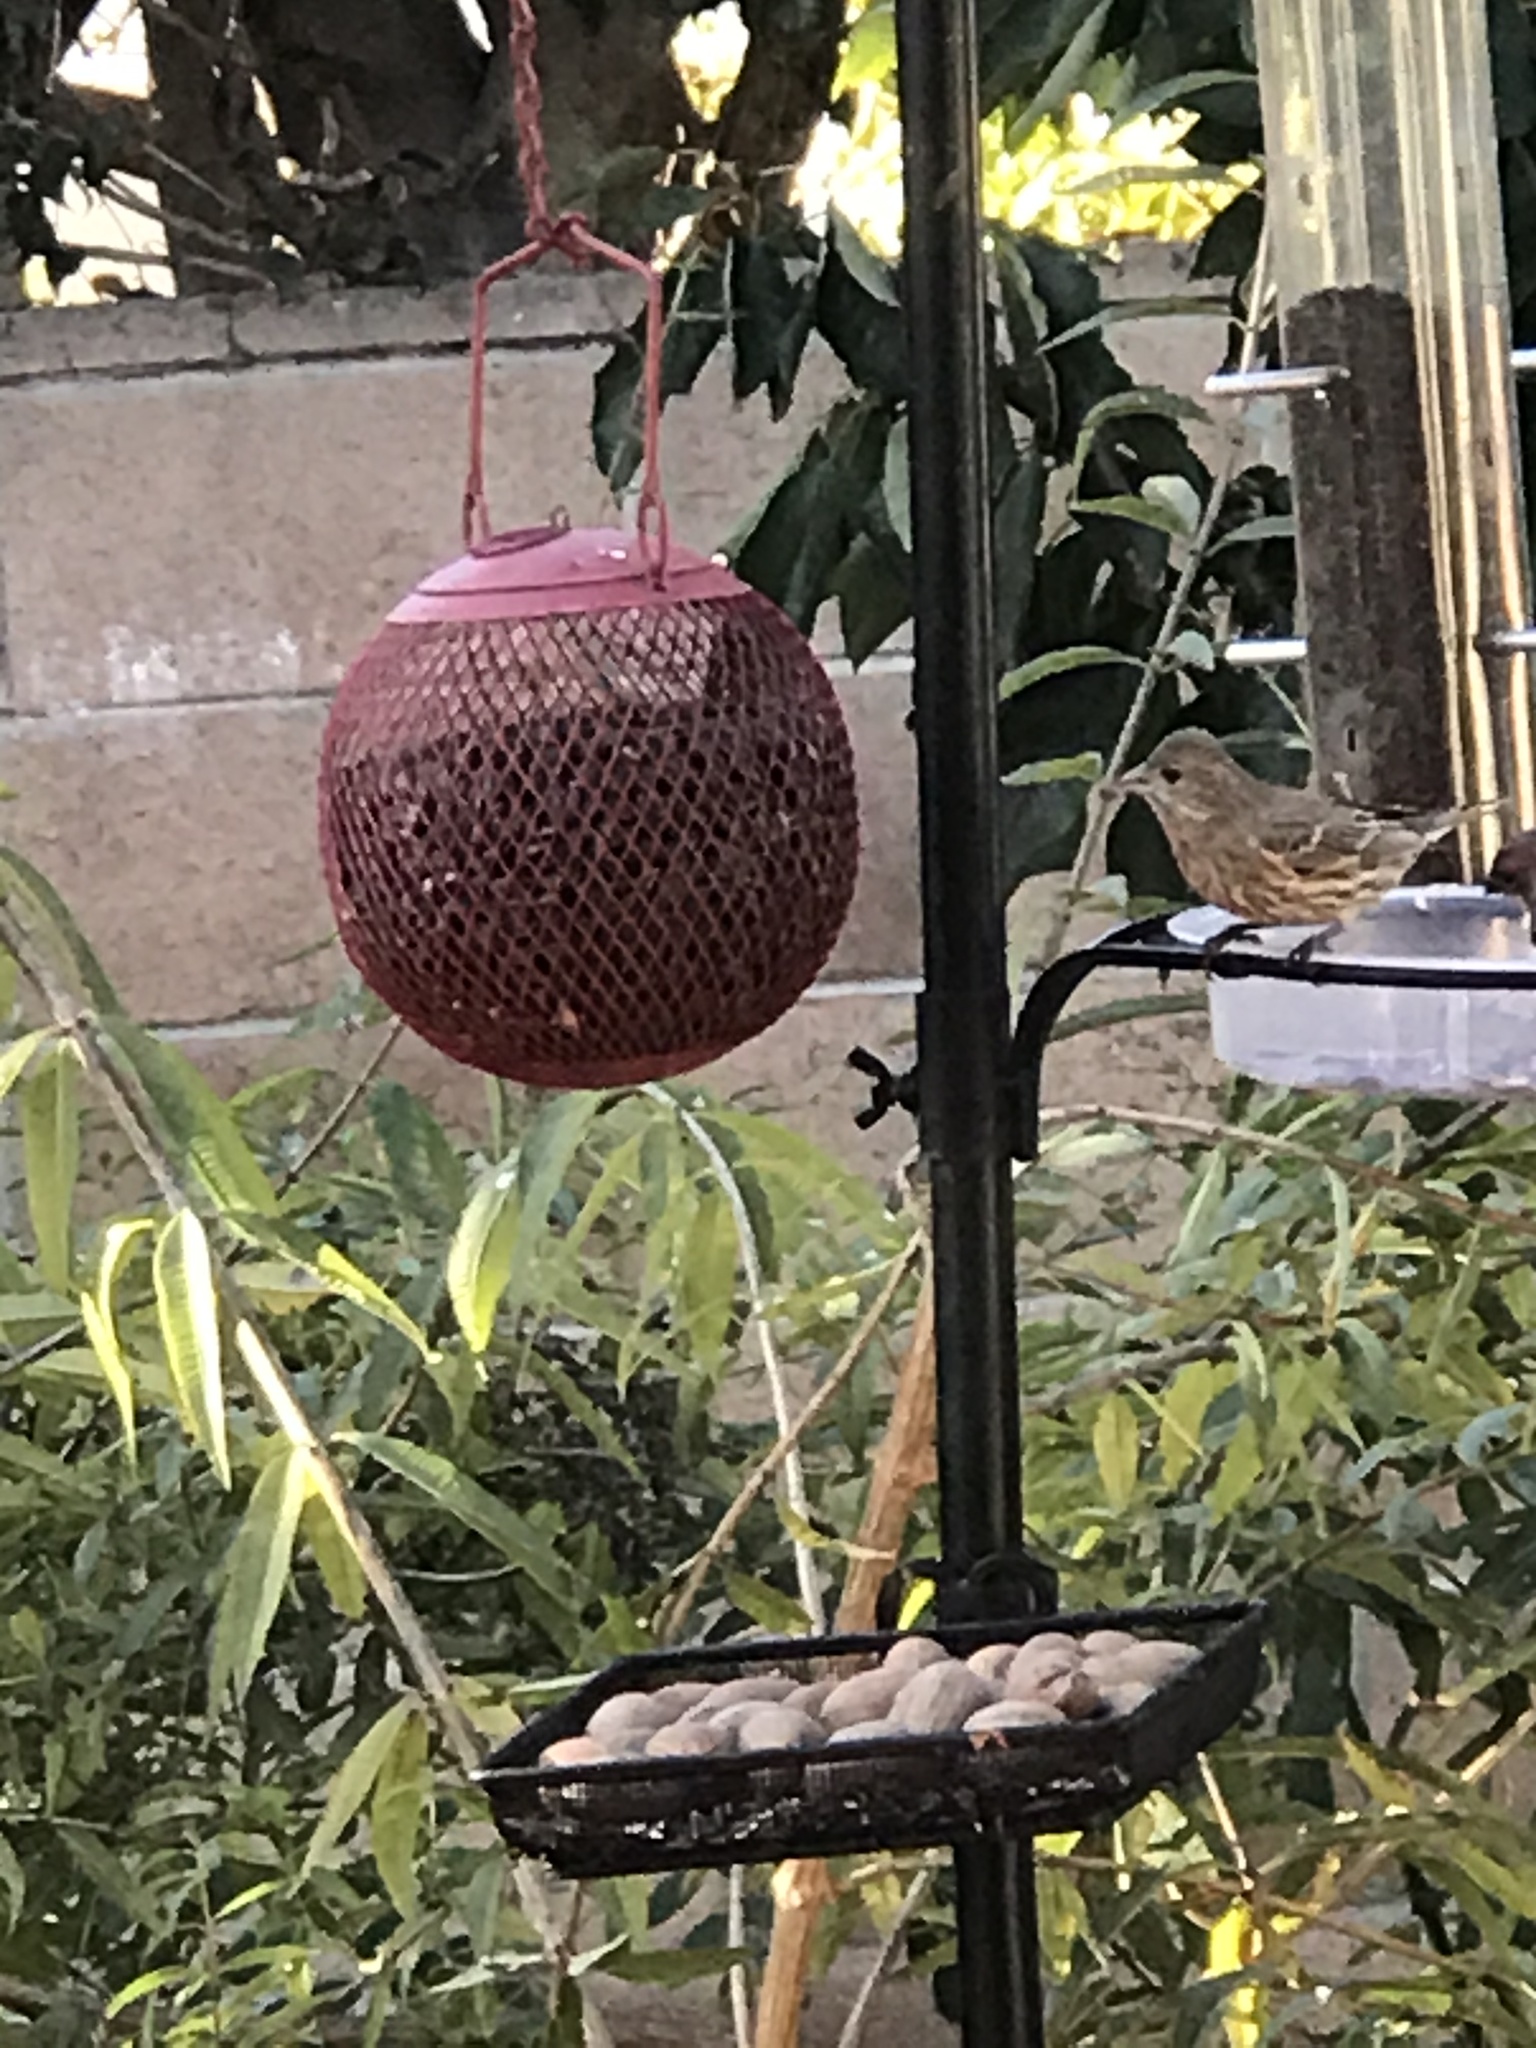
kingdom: Animalia
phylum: Chordata
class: Aves
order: Passeriformes
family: Fringillidae
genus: Haemorhous
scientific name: Haemorhous mexicanus
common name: House finch
